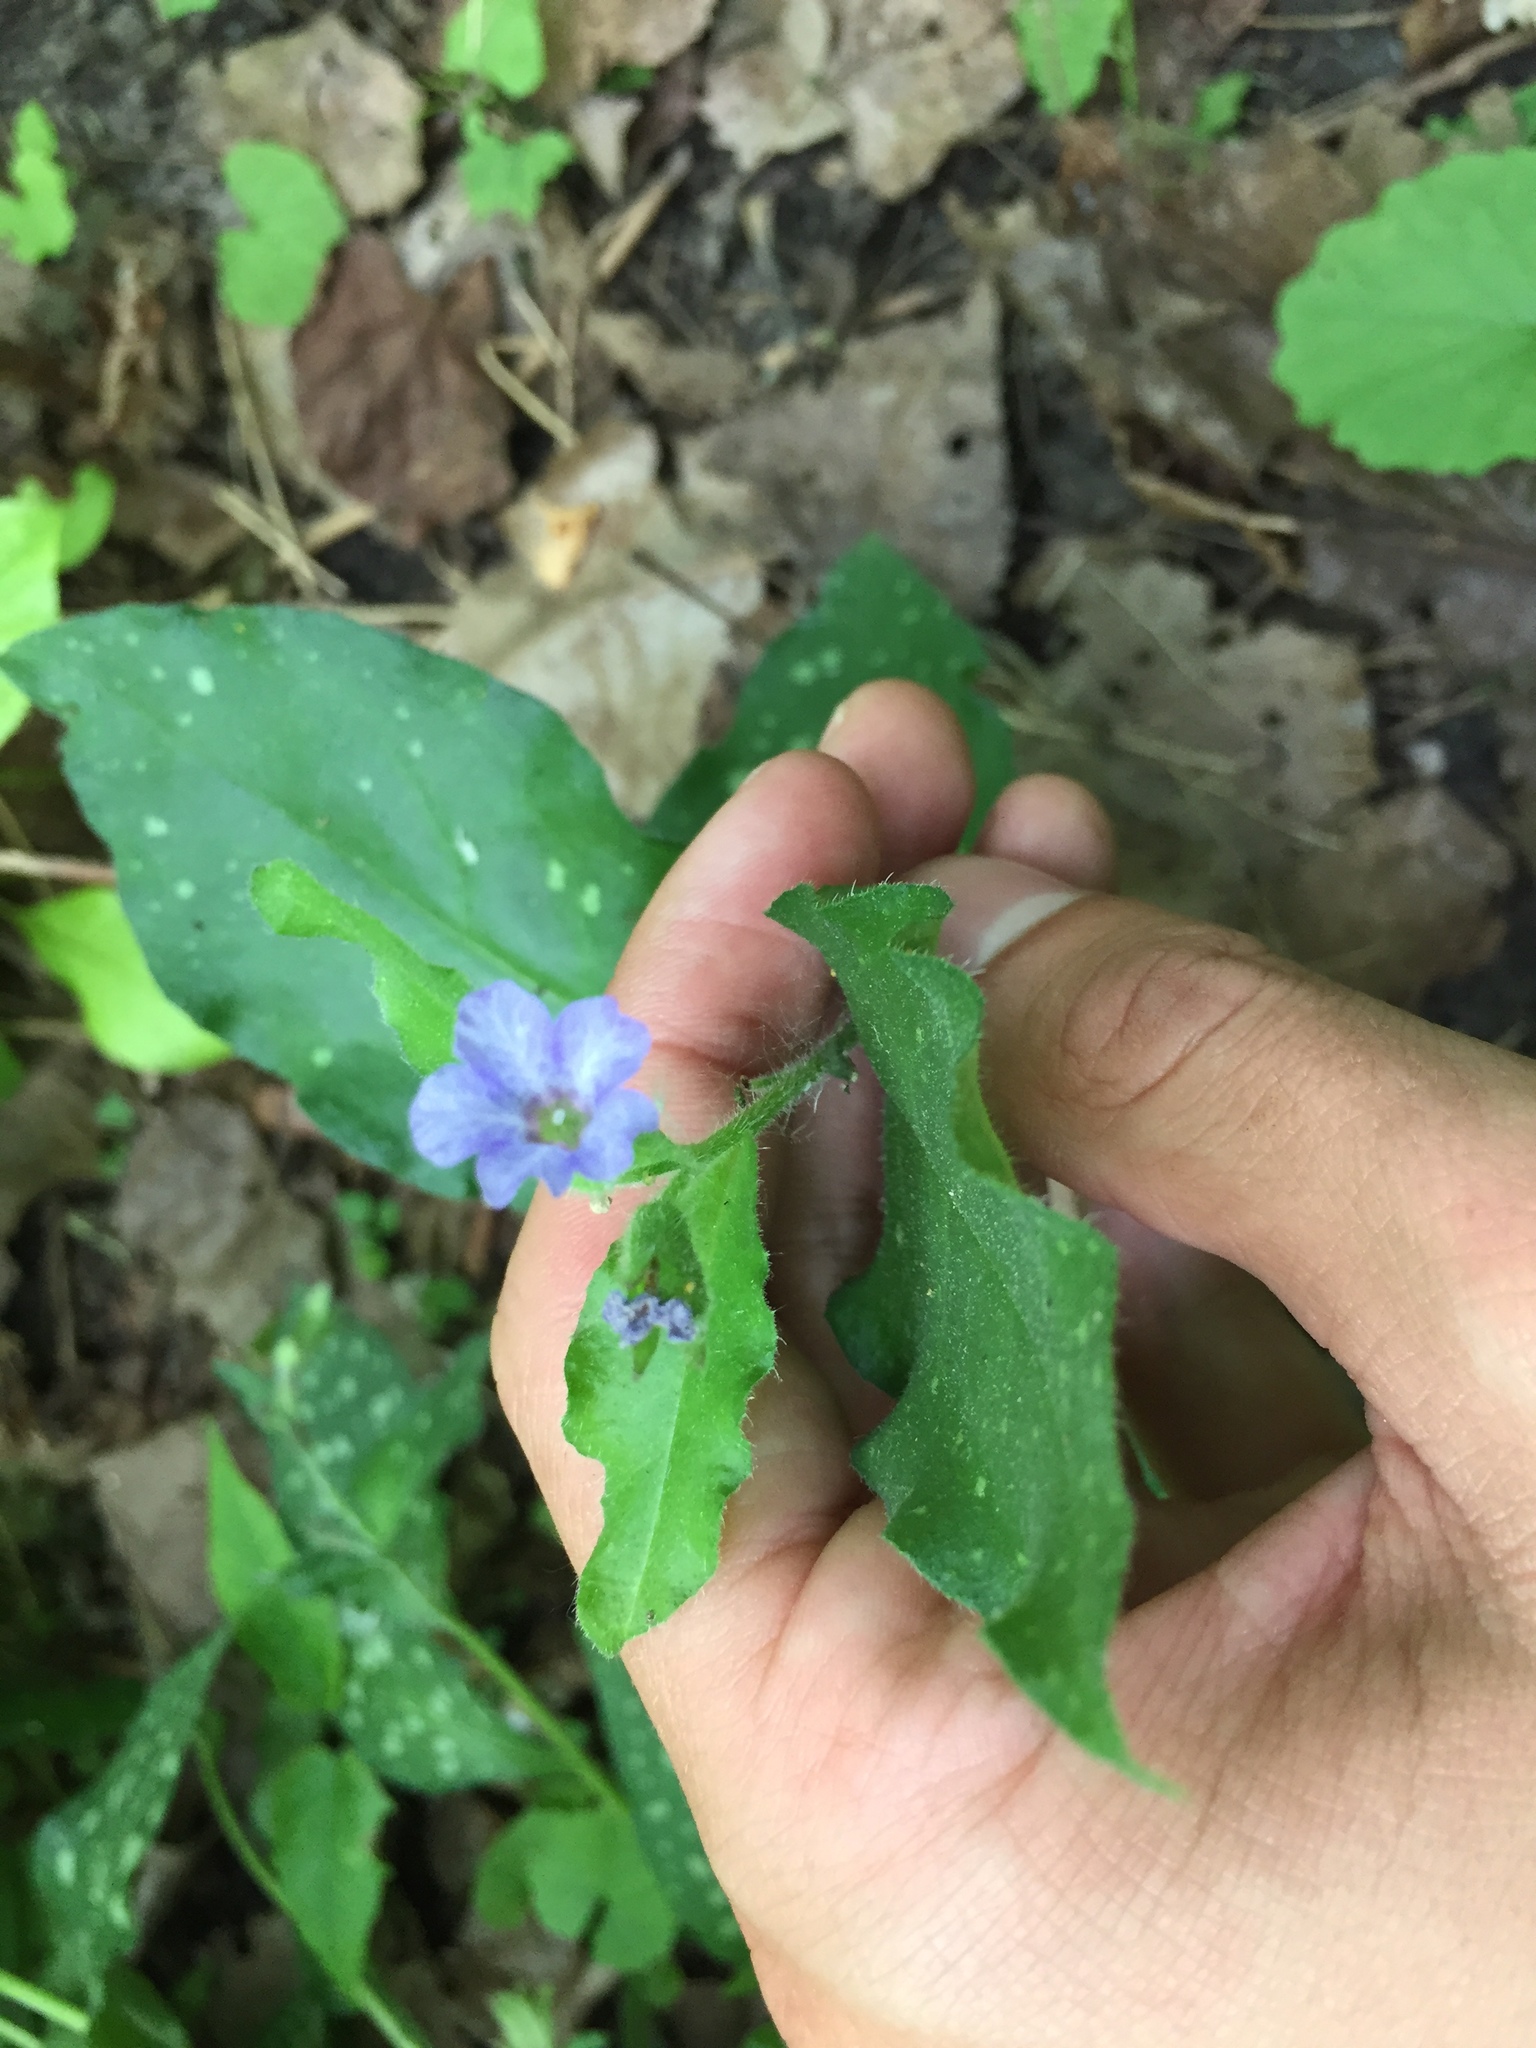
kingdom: Plantae
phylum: Tracheophyta
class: Magnoliopsida
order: Boraginales
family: Boraginaceae
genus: Pulmonaria
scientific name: Pulmonaria officinalis
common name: Lungwort
